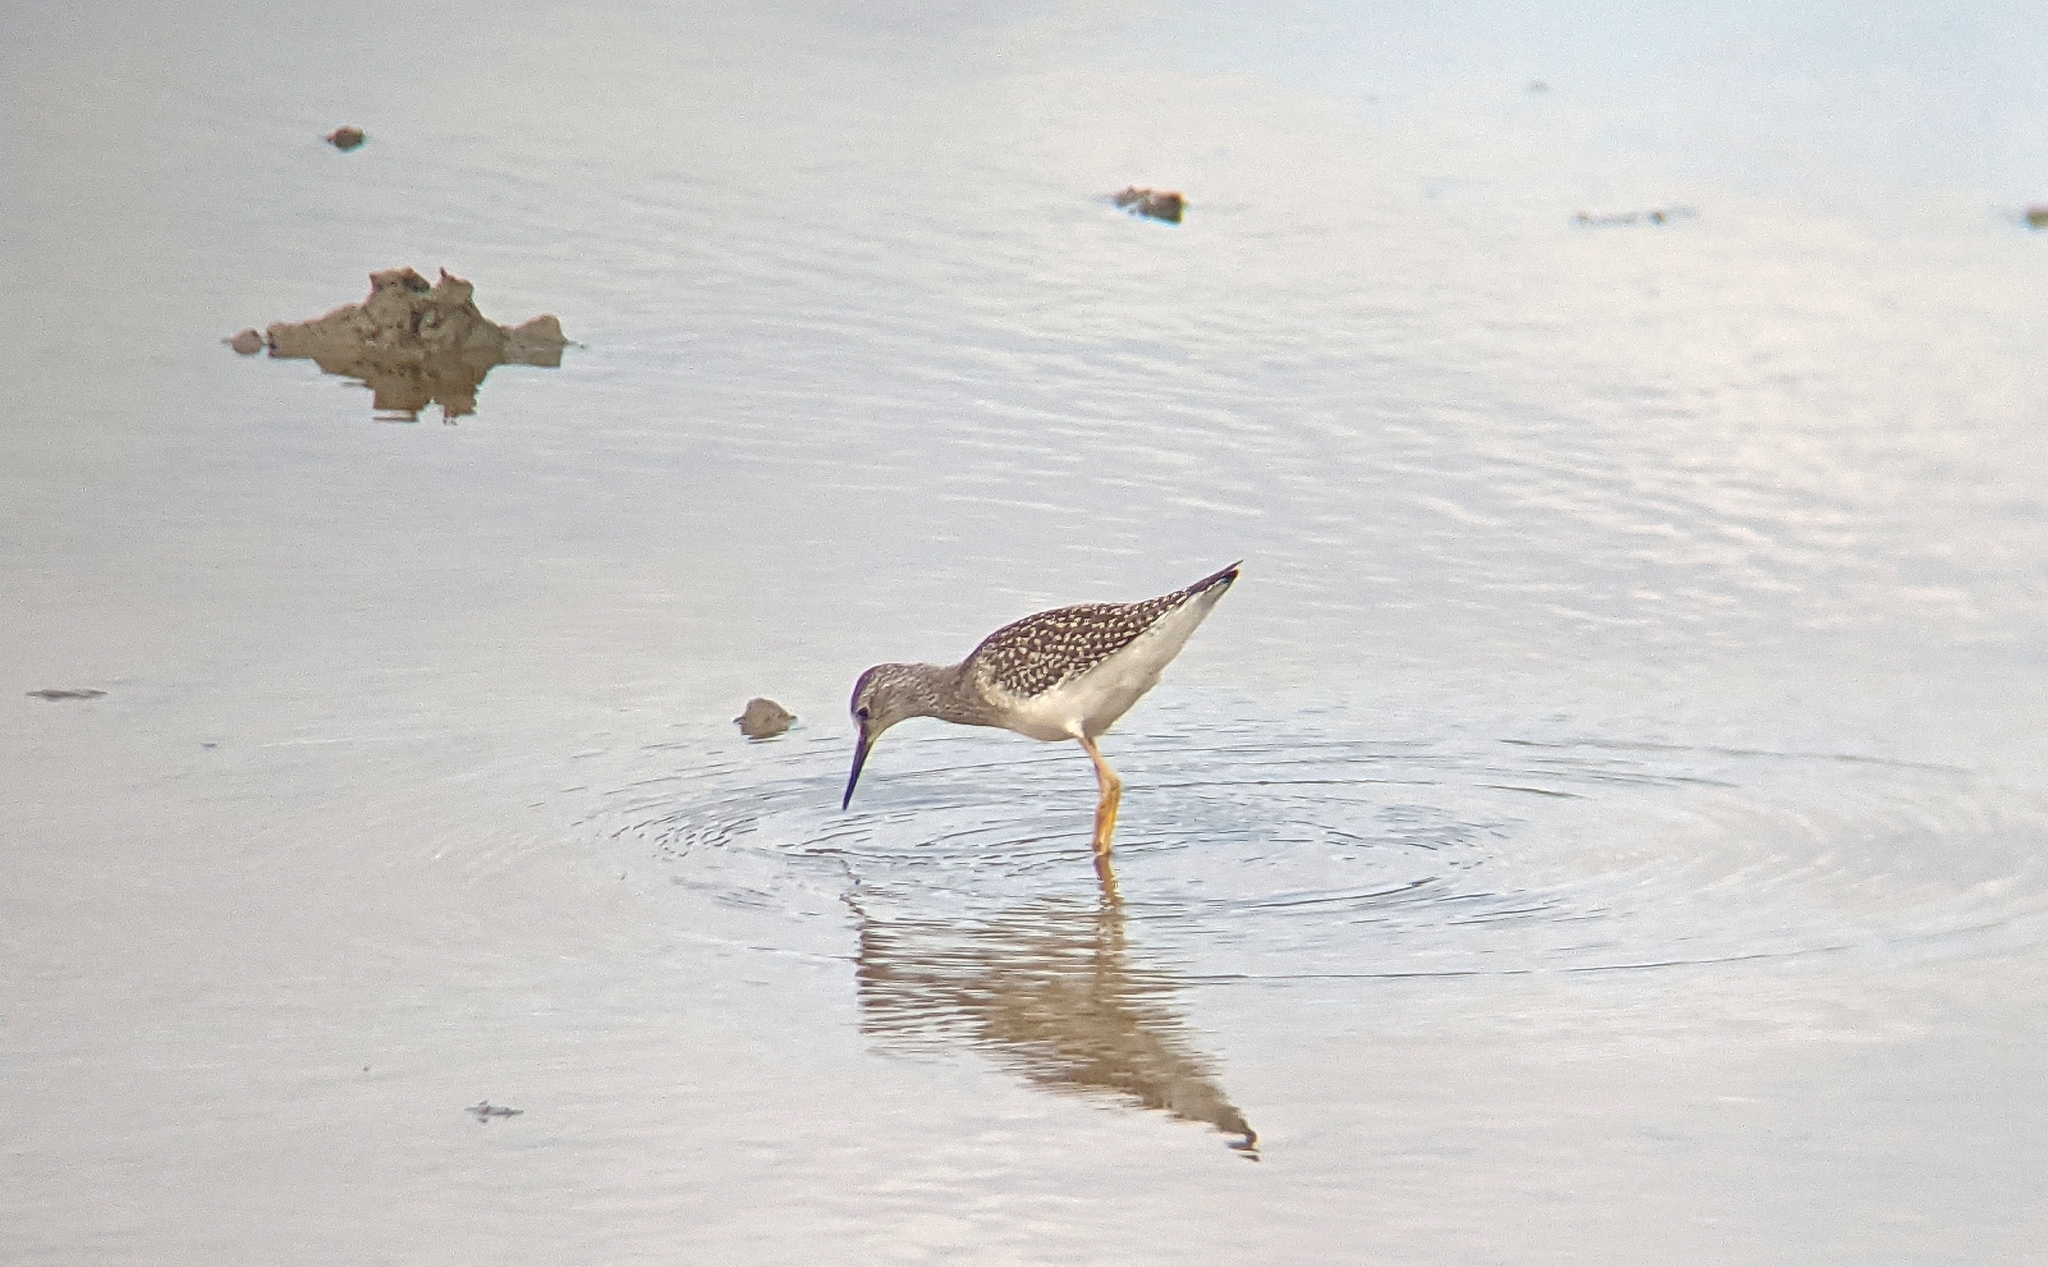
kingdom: Animalia
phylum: Chordata
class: Aves
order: Charadriiformes
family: Scolopacidae
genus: Tringa
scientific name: Tringa flavipes
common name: Lesser yellowlegs
